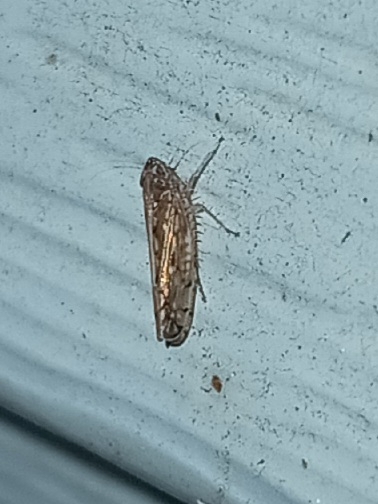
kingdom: Animalia
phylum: Arthropoda
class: Insecta
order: Hemiptera
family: Cicadellidae
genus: Osbornellus
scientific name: Osbornellus clarus
